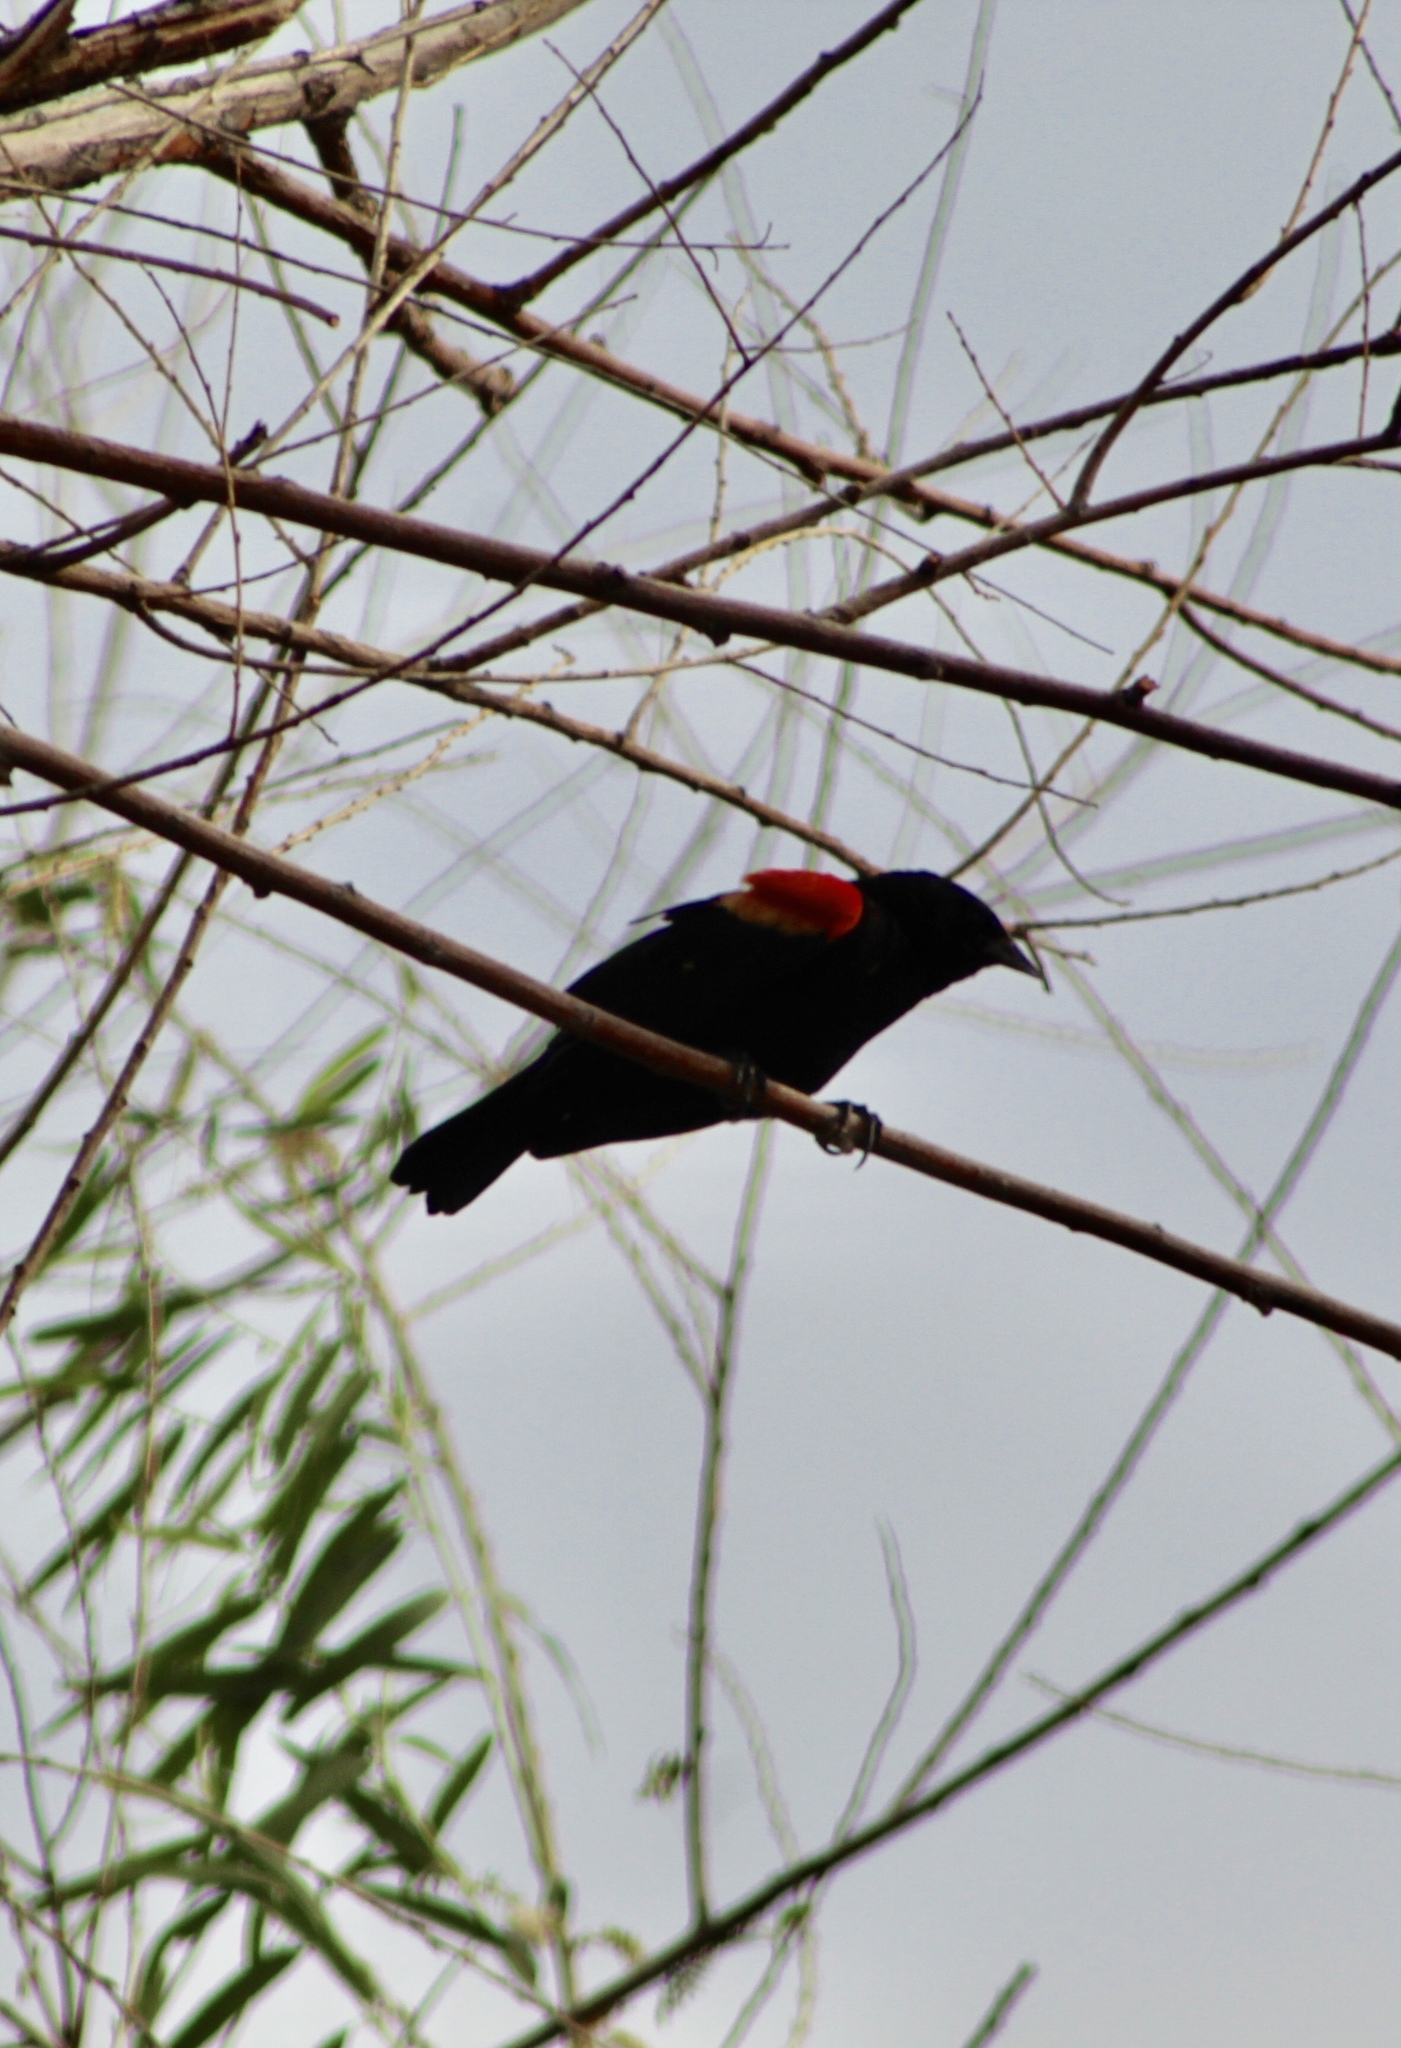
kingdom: Animalia
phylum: Chordata
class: Aves
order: Passeriformes
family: Icteridae
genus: Agelaius
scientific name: Agelaius phoeniceus
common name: Red-winged blackbird
